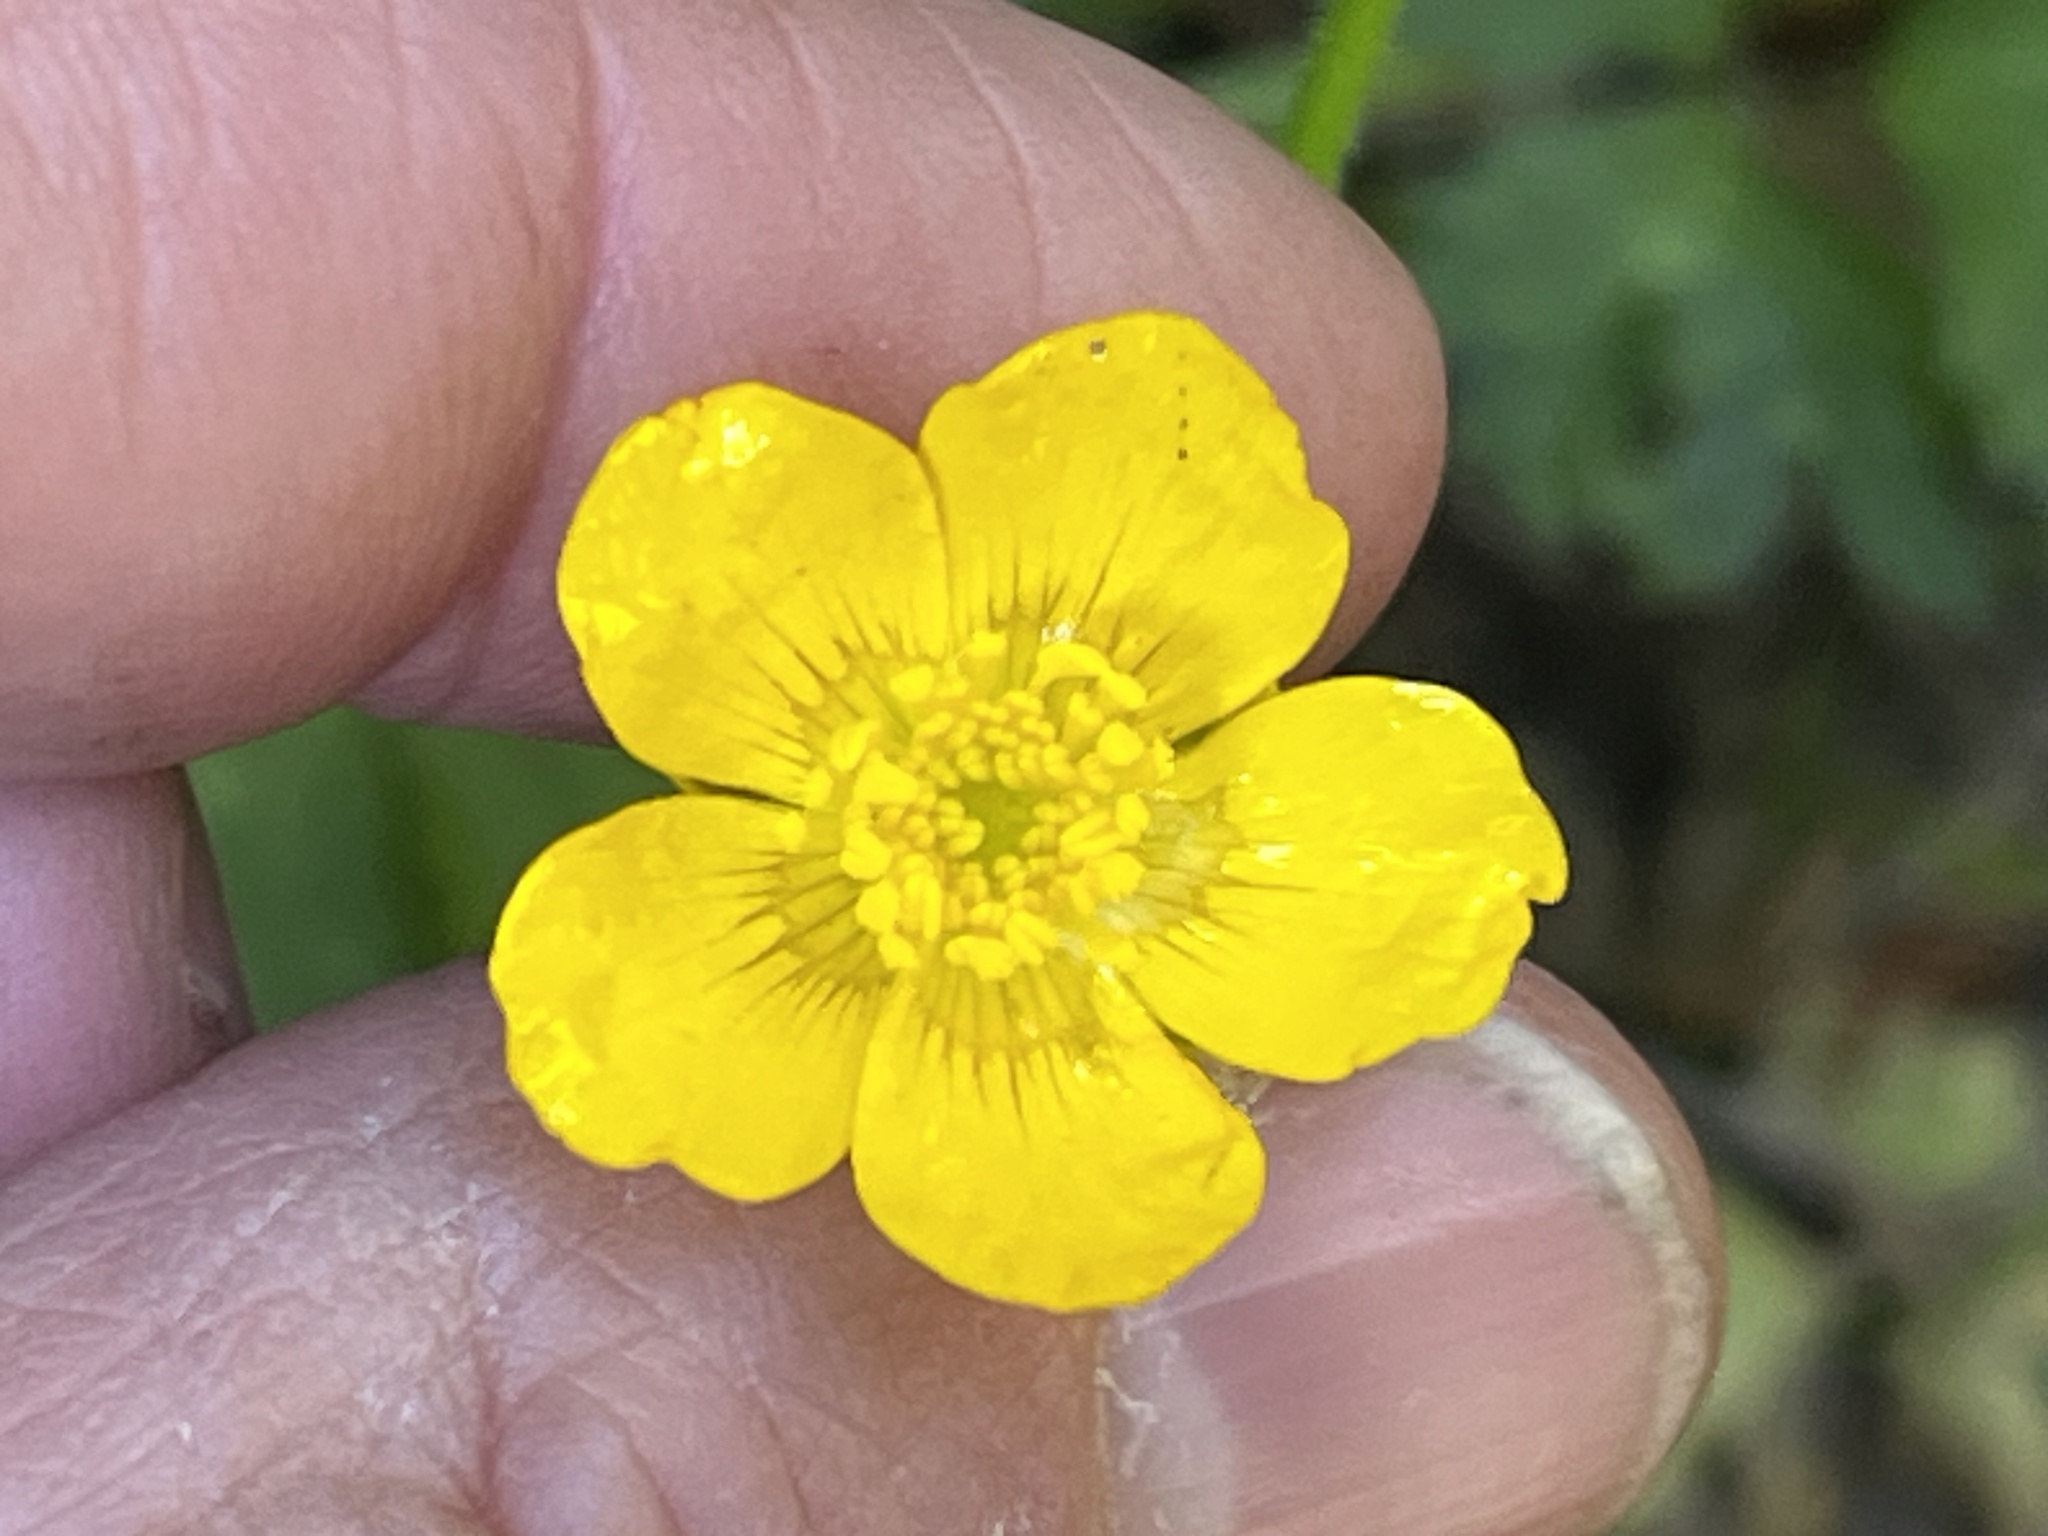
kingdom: Plantae
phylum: Tracheophyta
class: Magnoliopsida
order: Ranunculales
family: Ranunculaceae
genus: Ranunculus
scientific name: Ranunculus repens
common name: Creeping buttercup
